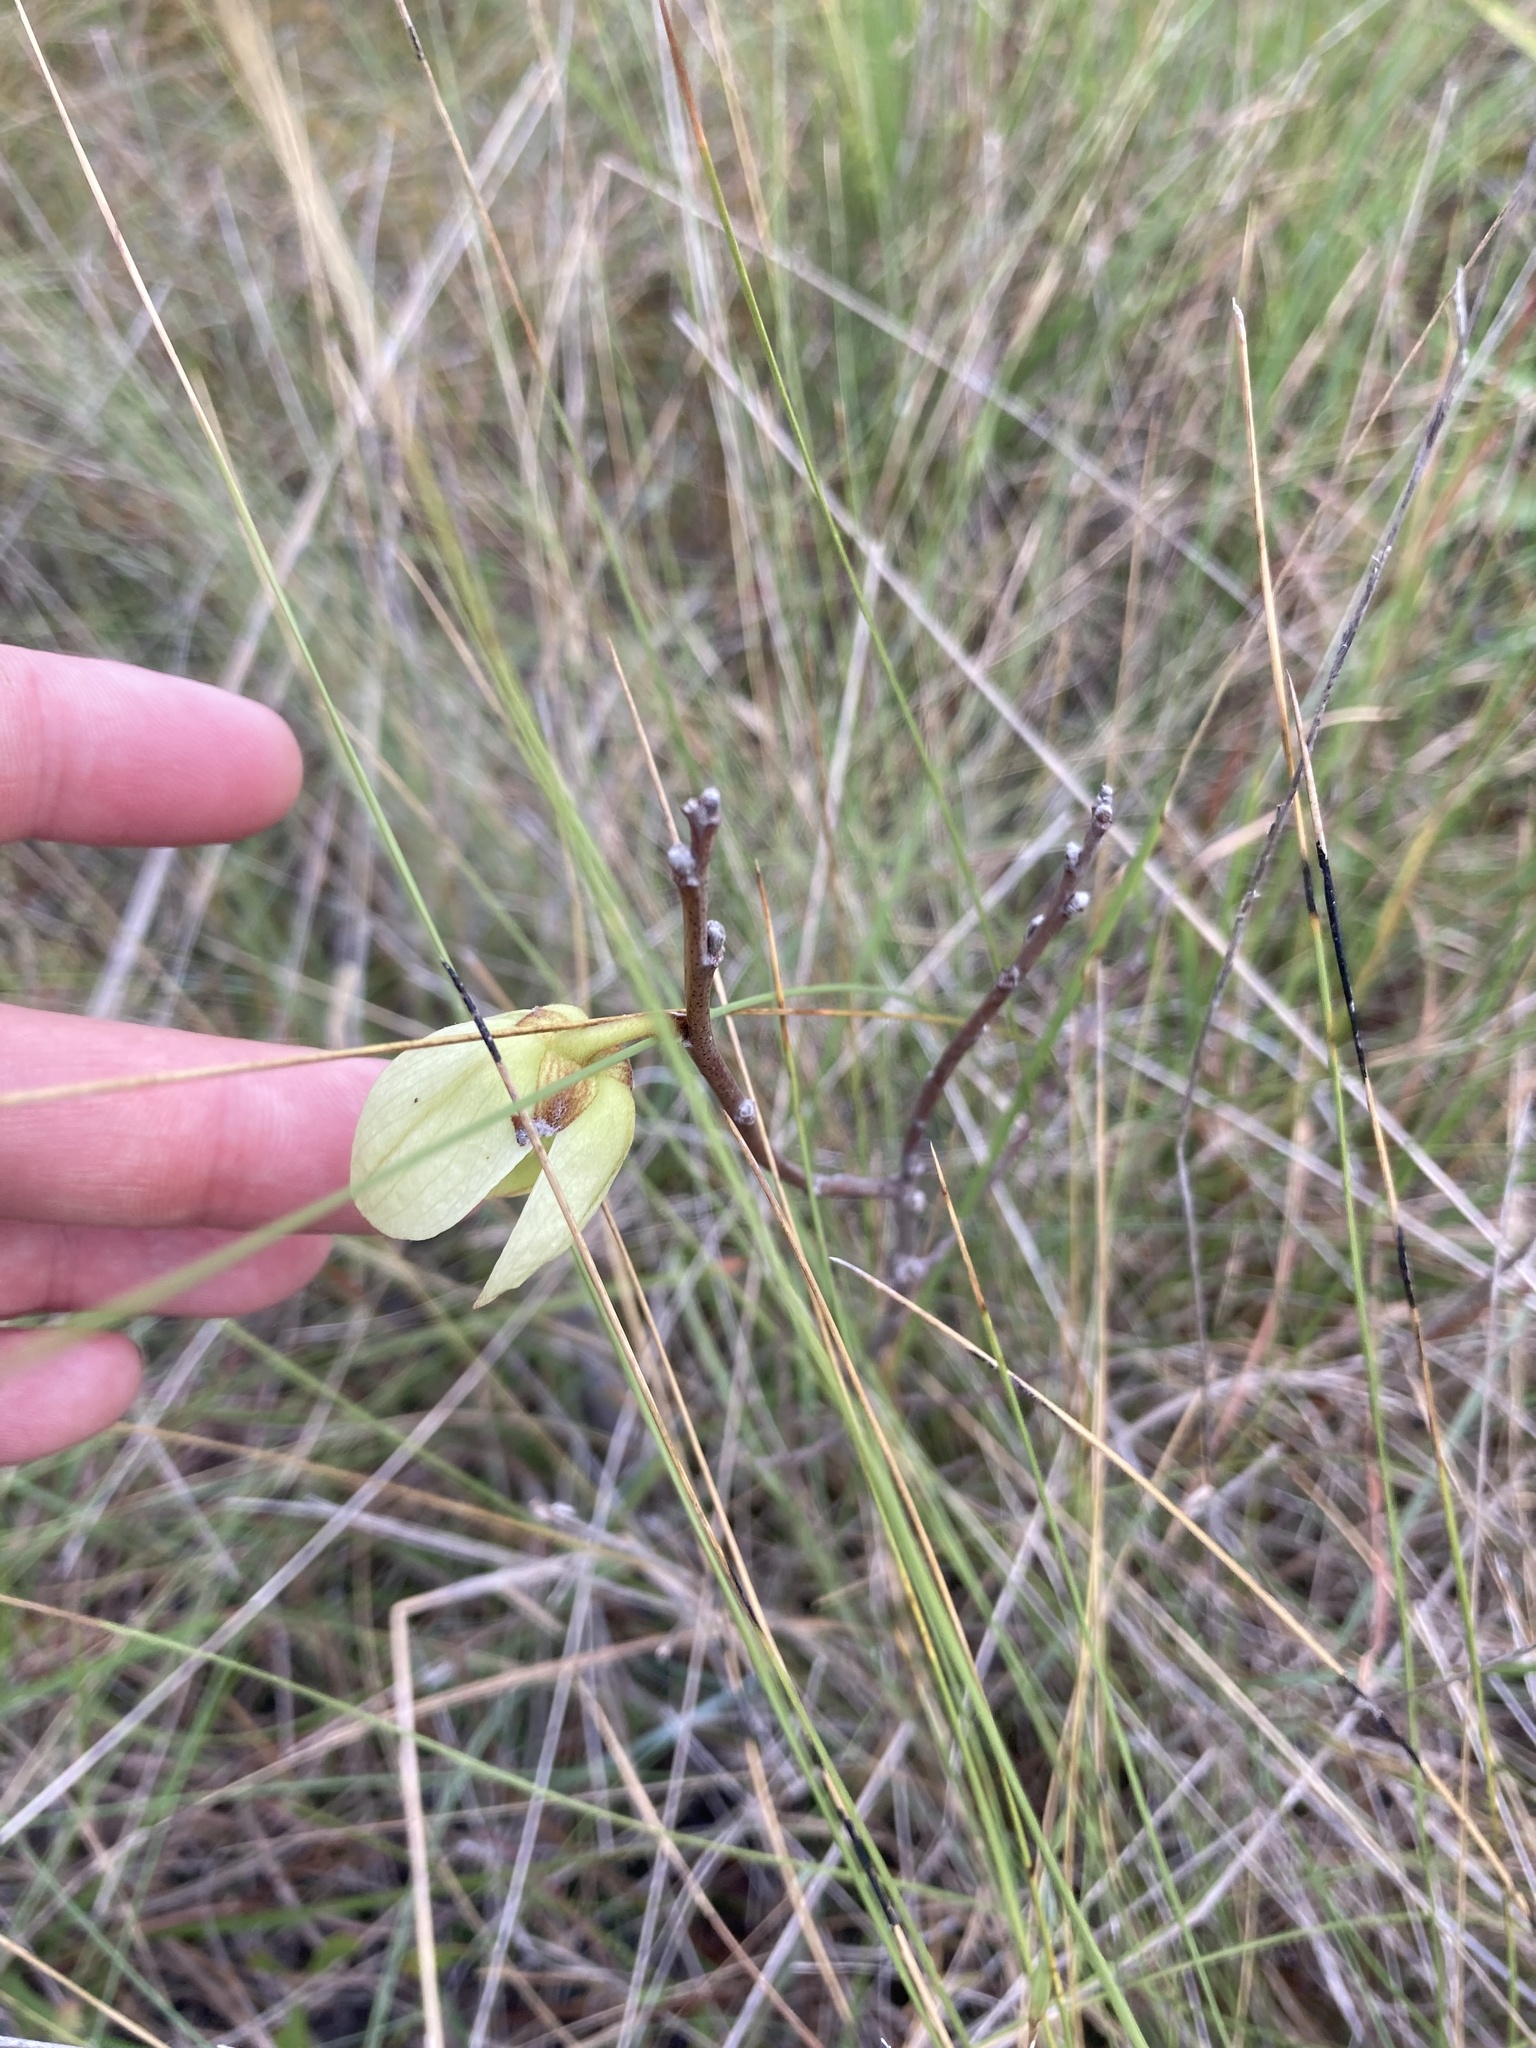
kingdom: Plantae
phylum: Tracheophyta
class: Magnoliopsida
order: Magnoliales
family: Annonaceae
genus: Asimina
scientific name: Asimina reticulata
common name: Flag pawpaw
